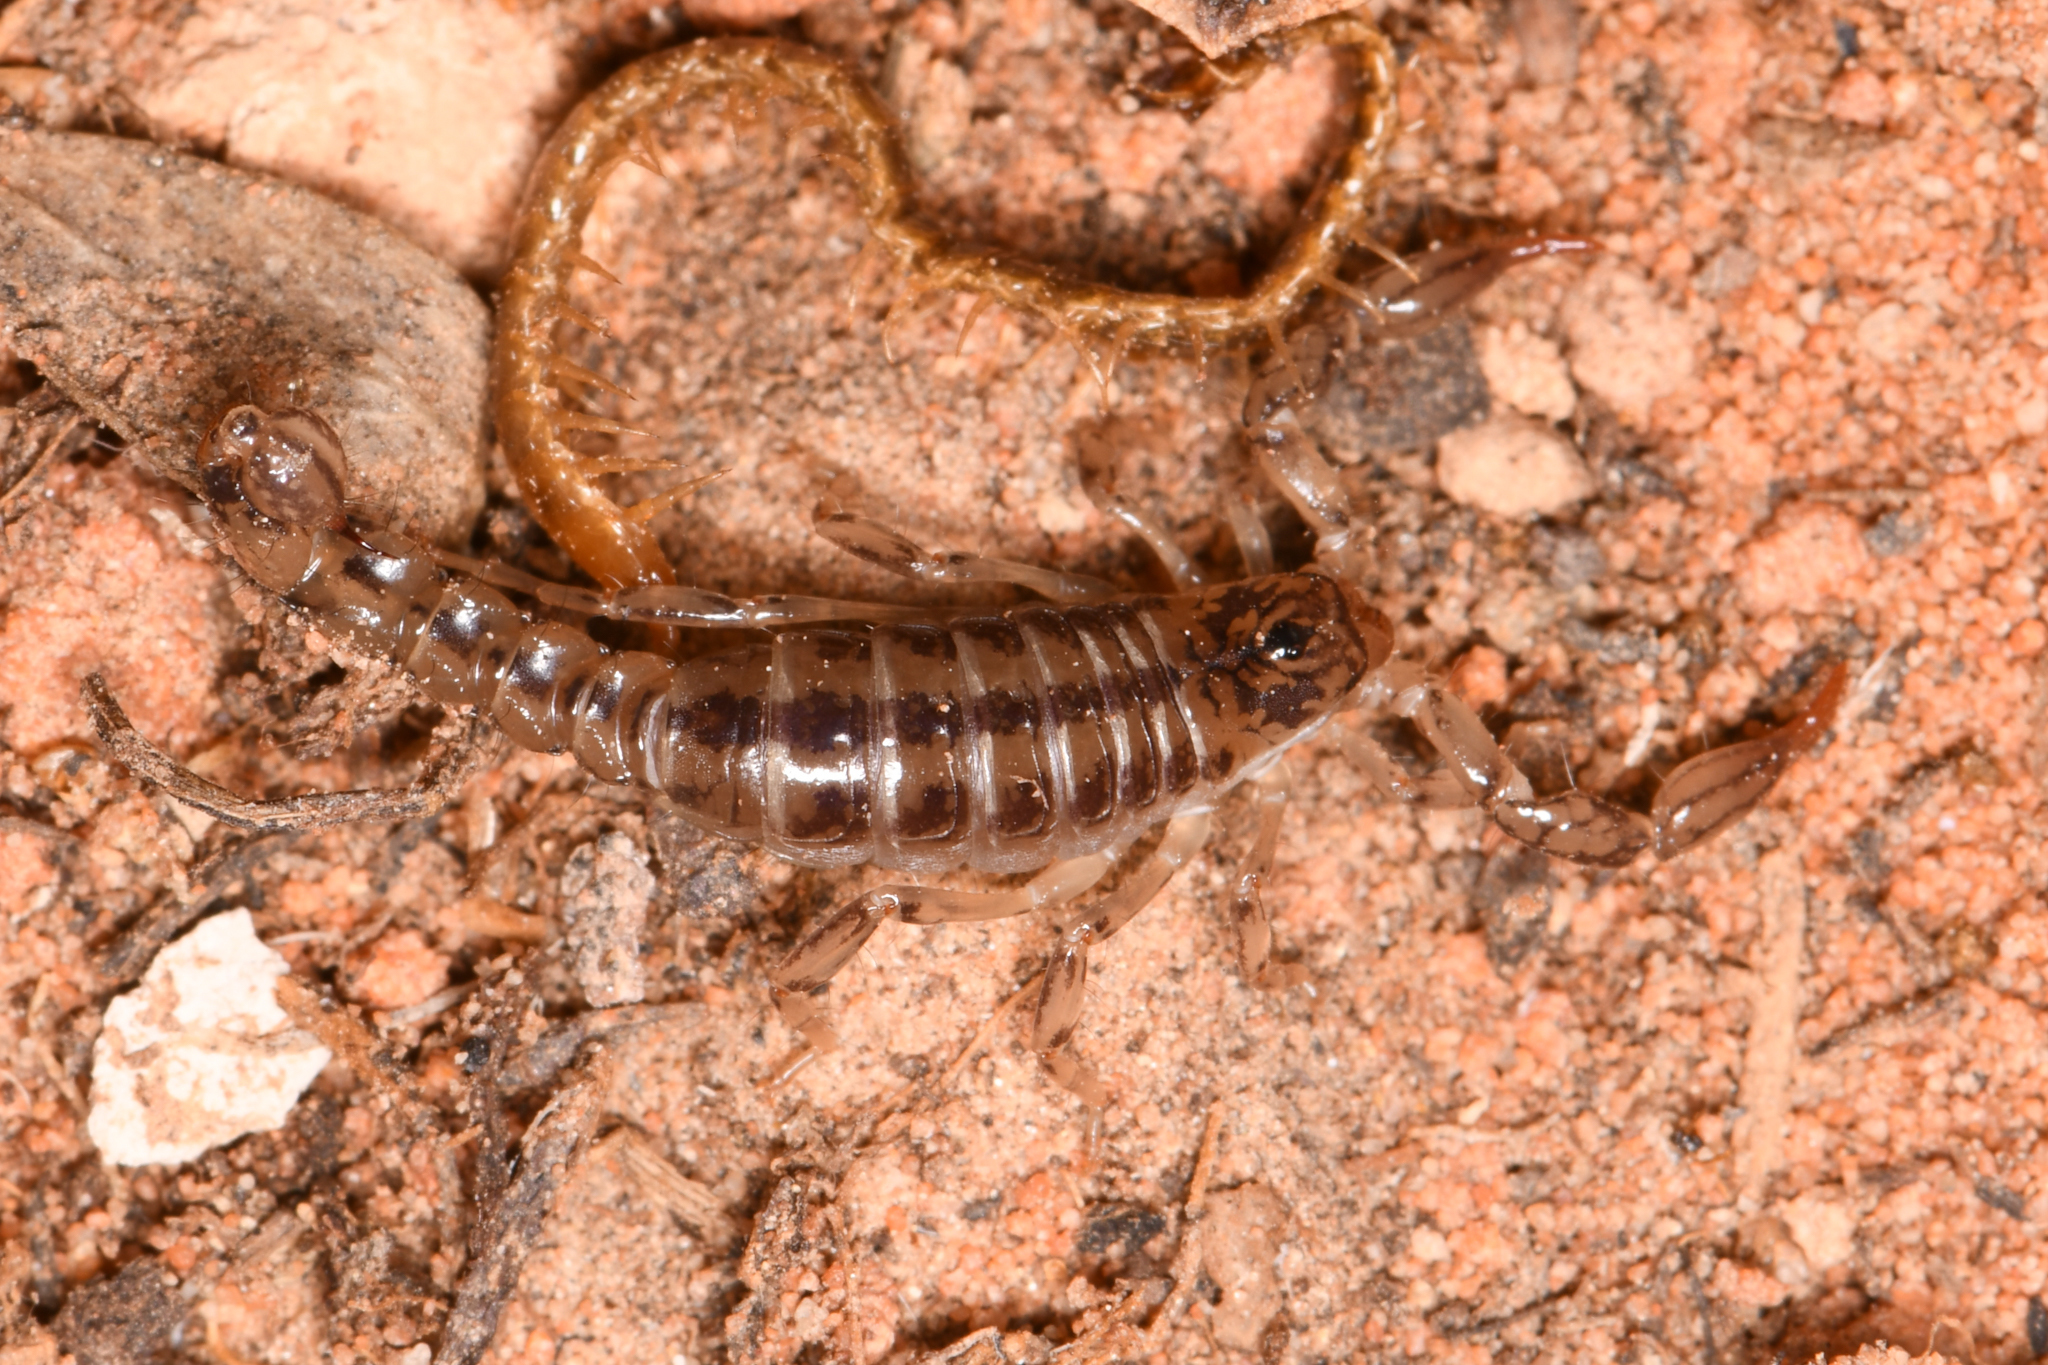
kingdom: Animalia
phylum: Arthropoda
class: Arachnida
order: Scorpiones
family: Superstitioniidae
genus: Superstitionia
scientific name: Superstitionia donensis
